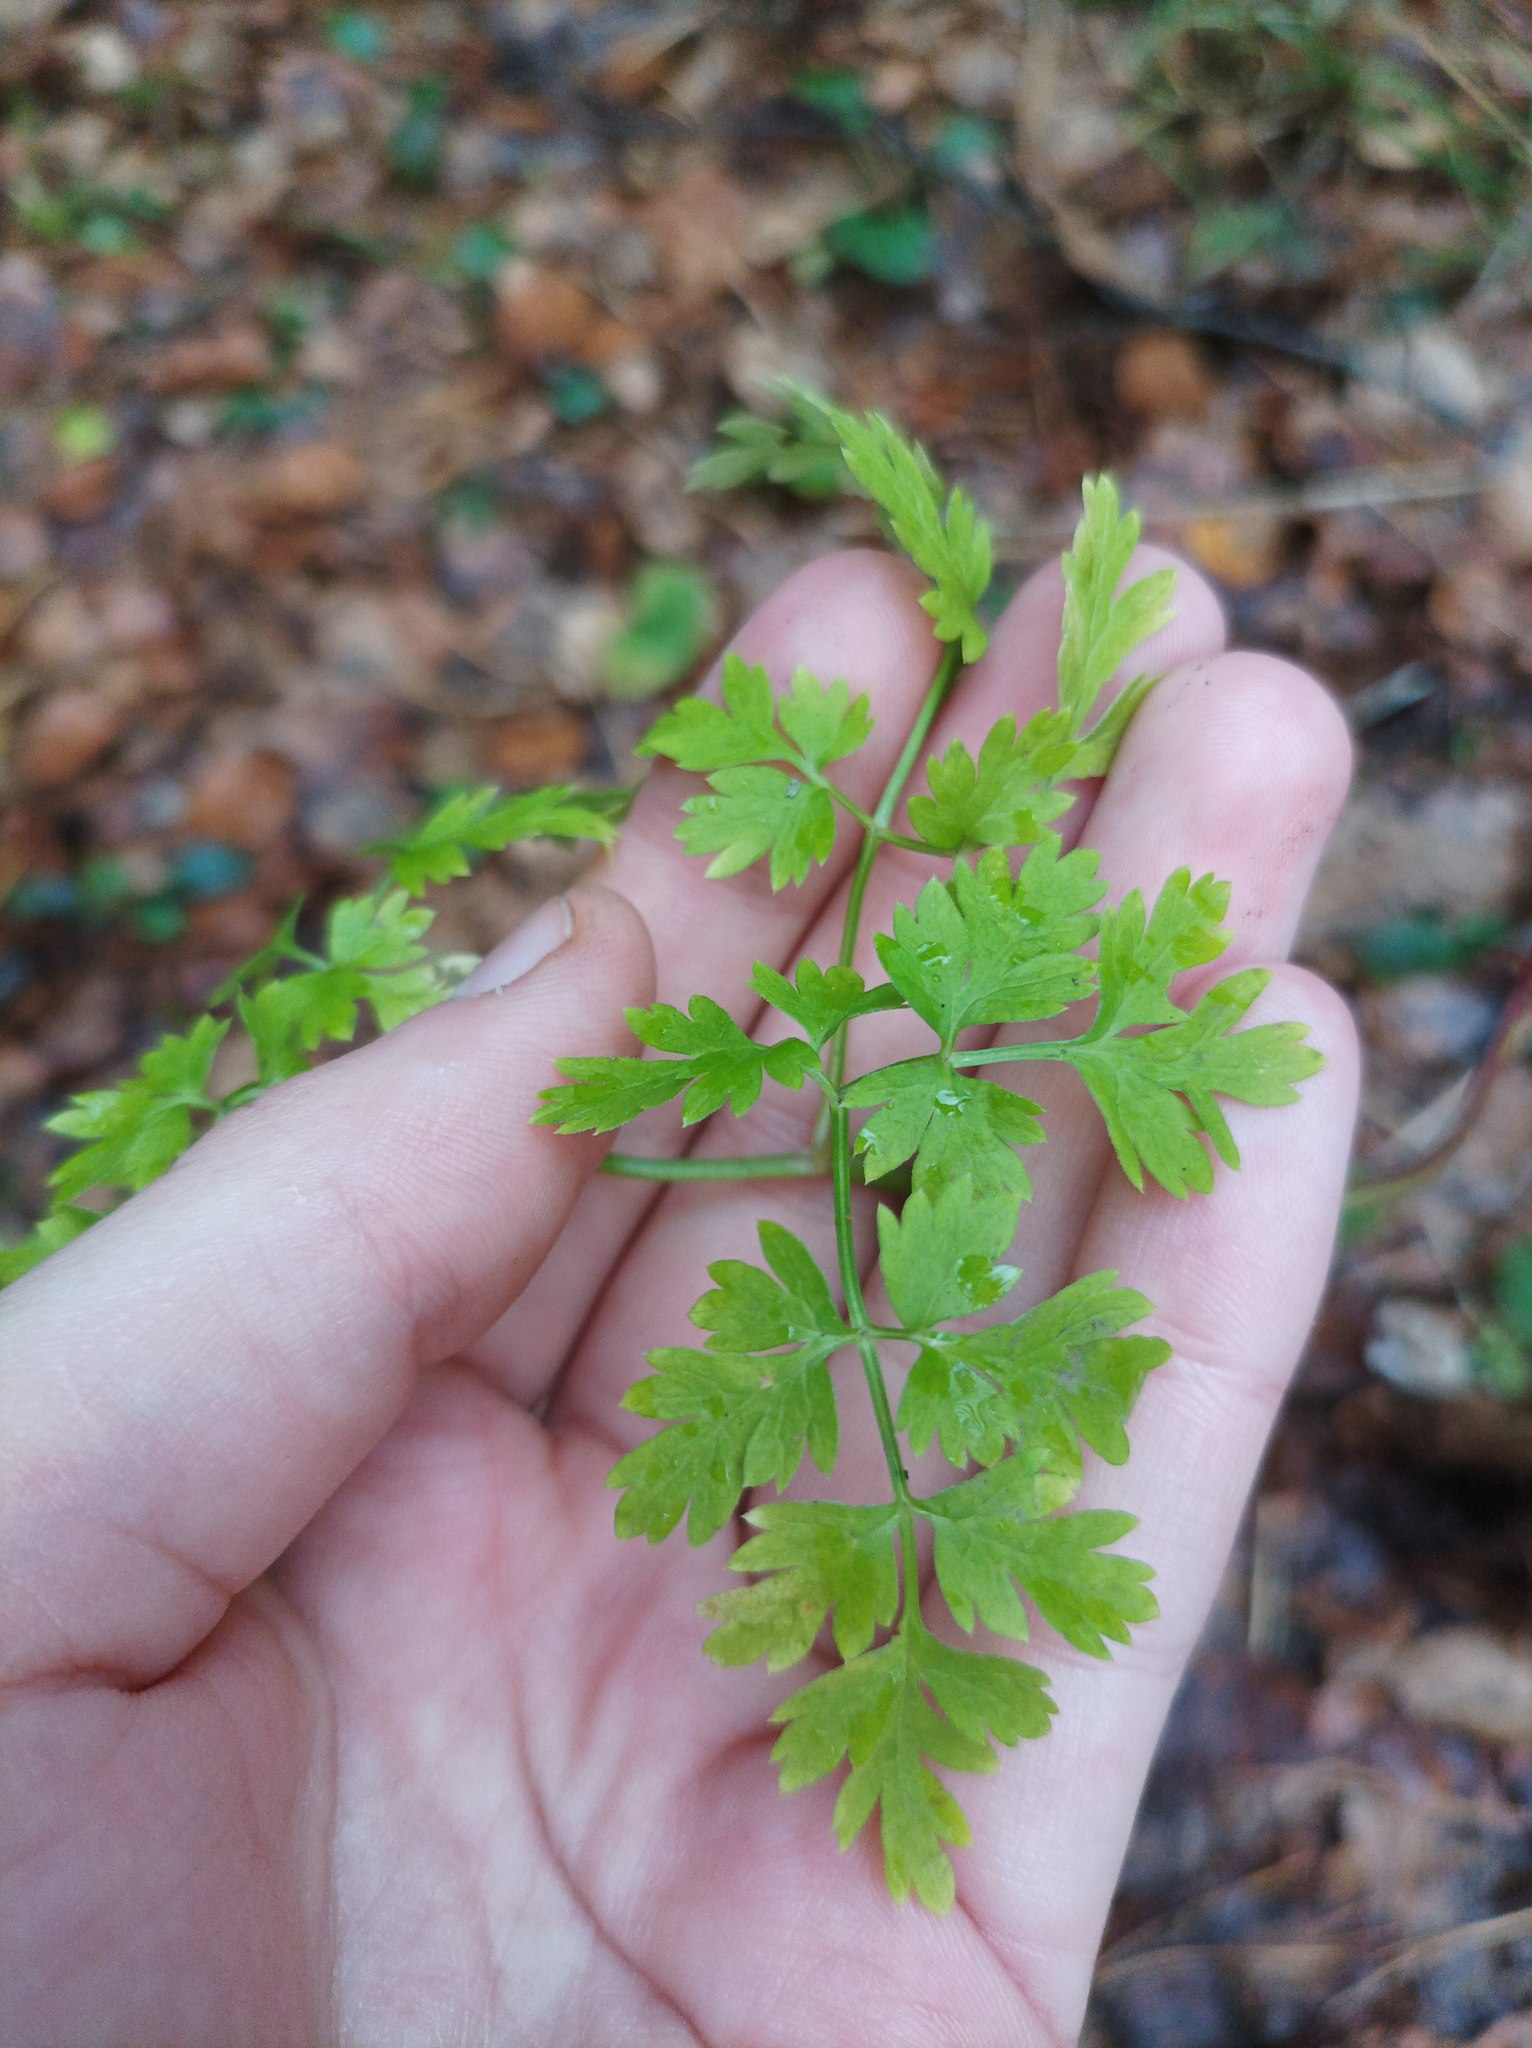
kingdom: Plantae
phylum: Tracheophyta
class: Magnoliopsida
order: Apiales
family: Apiaceae
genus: Anthriscus
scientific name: Anthriscus sylvestris
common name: Cow parsley
